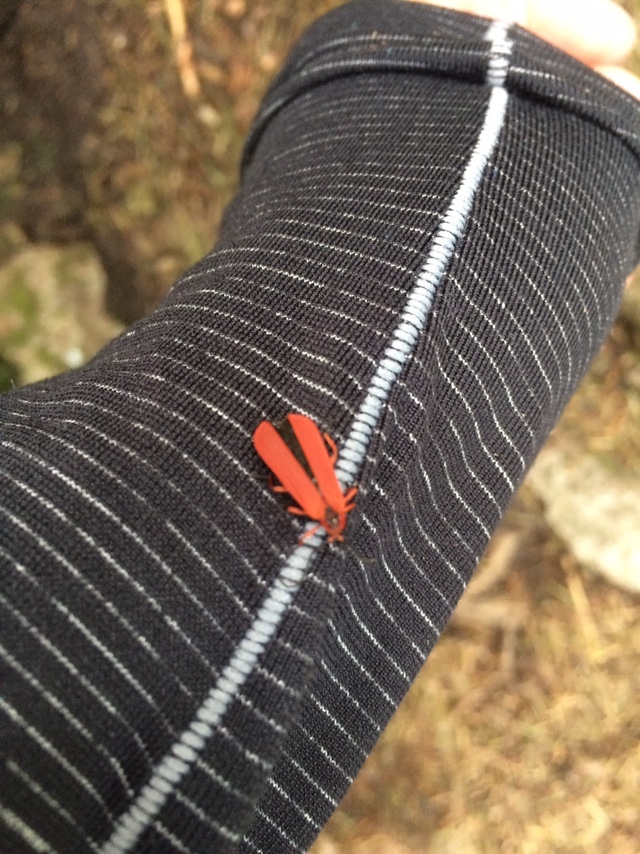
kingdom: Animalia
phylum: Arthropoda
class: Insecta
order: Coleoptera
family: Lycidae
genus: Dictyoptera
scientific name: Dictyoptera simplicipes
